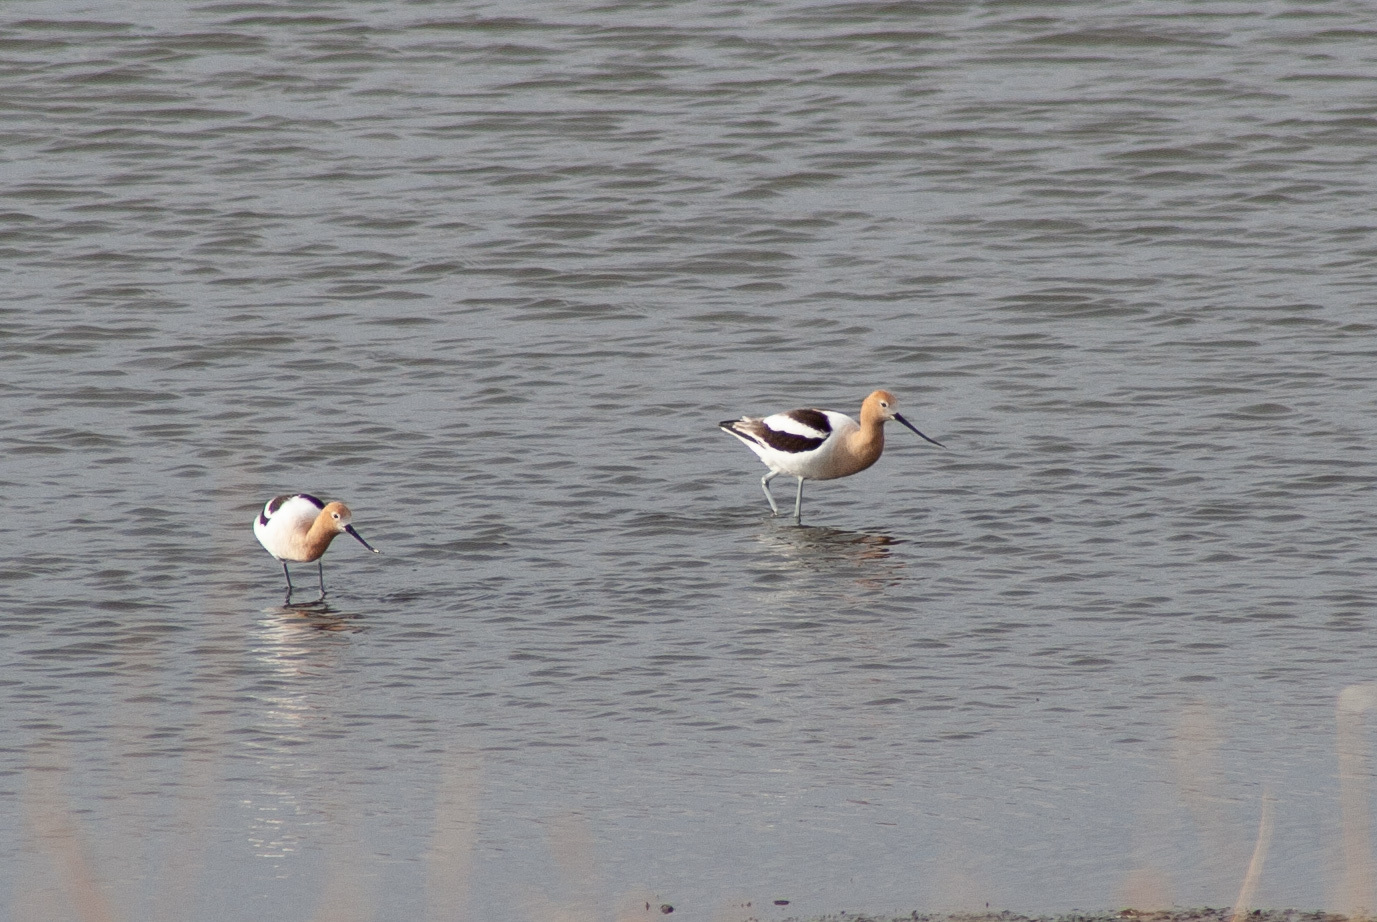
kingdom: Animalia
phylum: Chordata
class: Aves
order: Charadriiformes
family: Recurvirostridae
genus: Recurvirostra
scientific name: Recurvirostra americana
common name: American avocet
